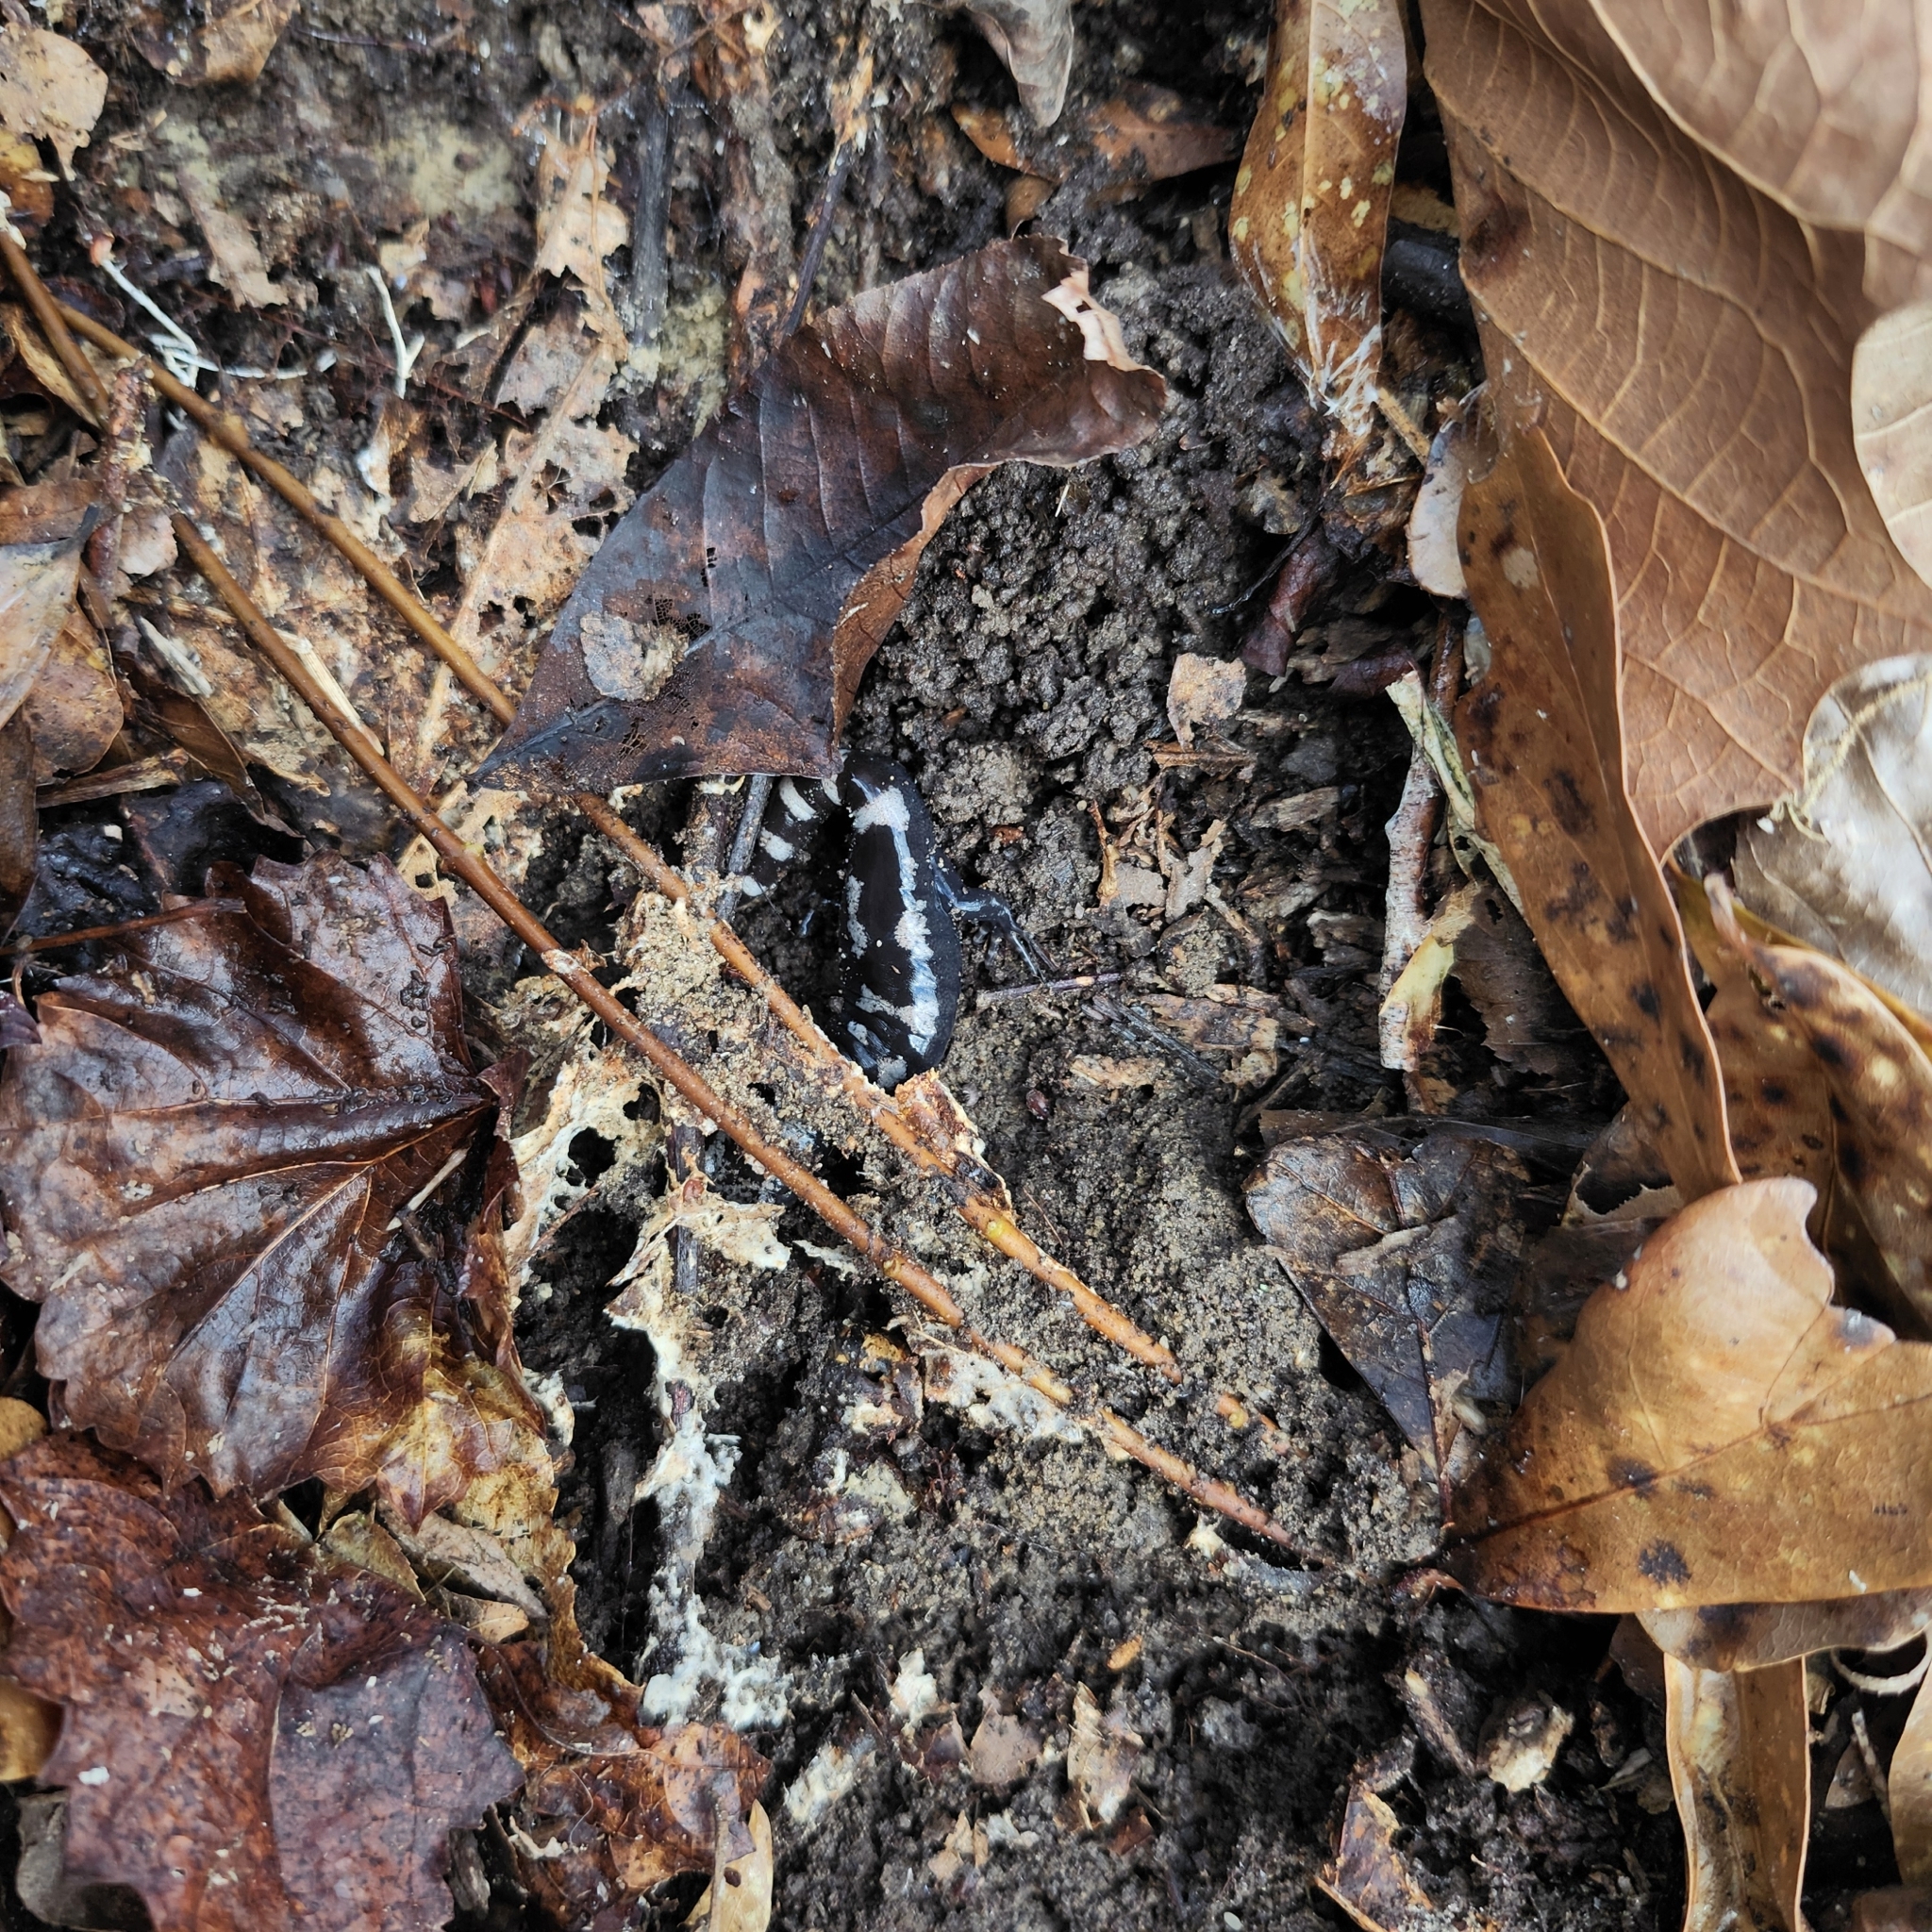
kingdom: Animalia
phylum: Chordata
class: Amphibia
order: Caudata
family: Ambystomatidae
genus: Ambystoma
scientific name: Ambystoma opacum
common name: Marbled salamander
